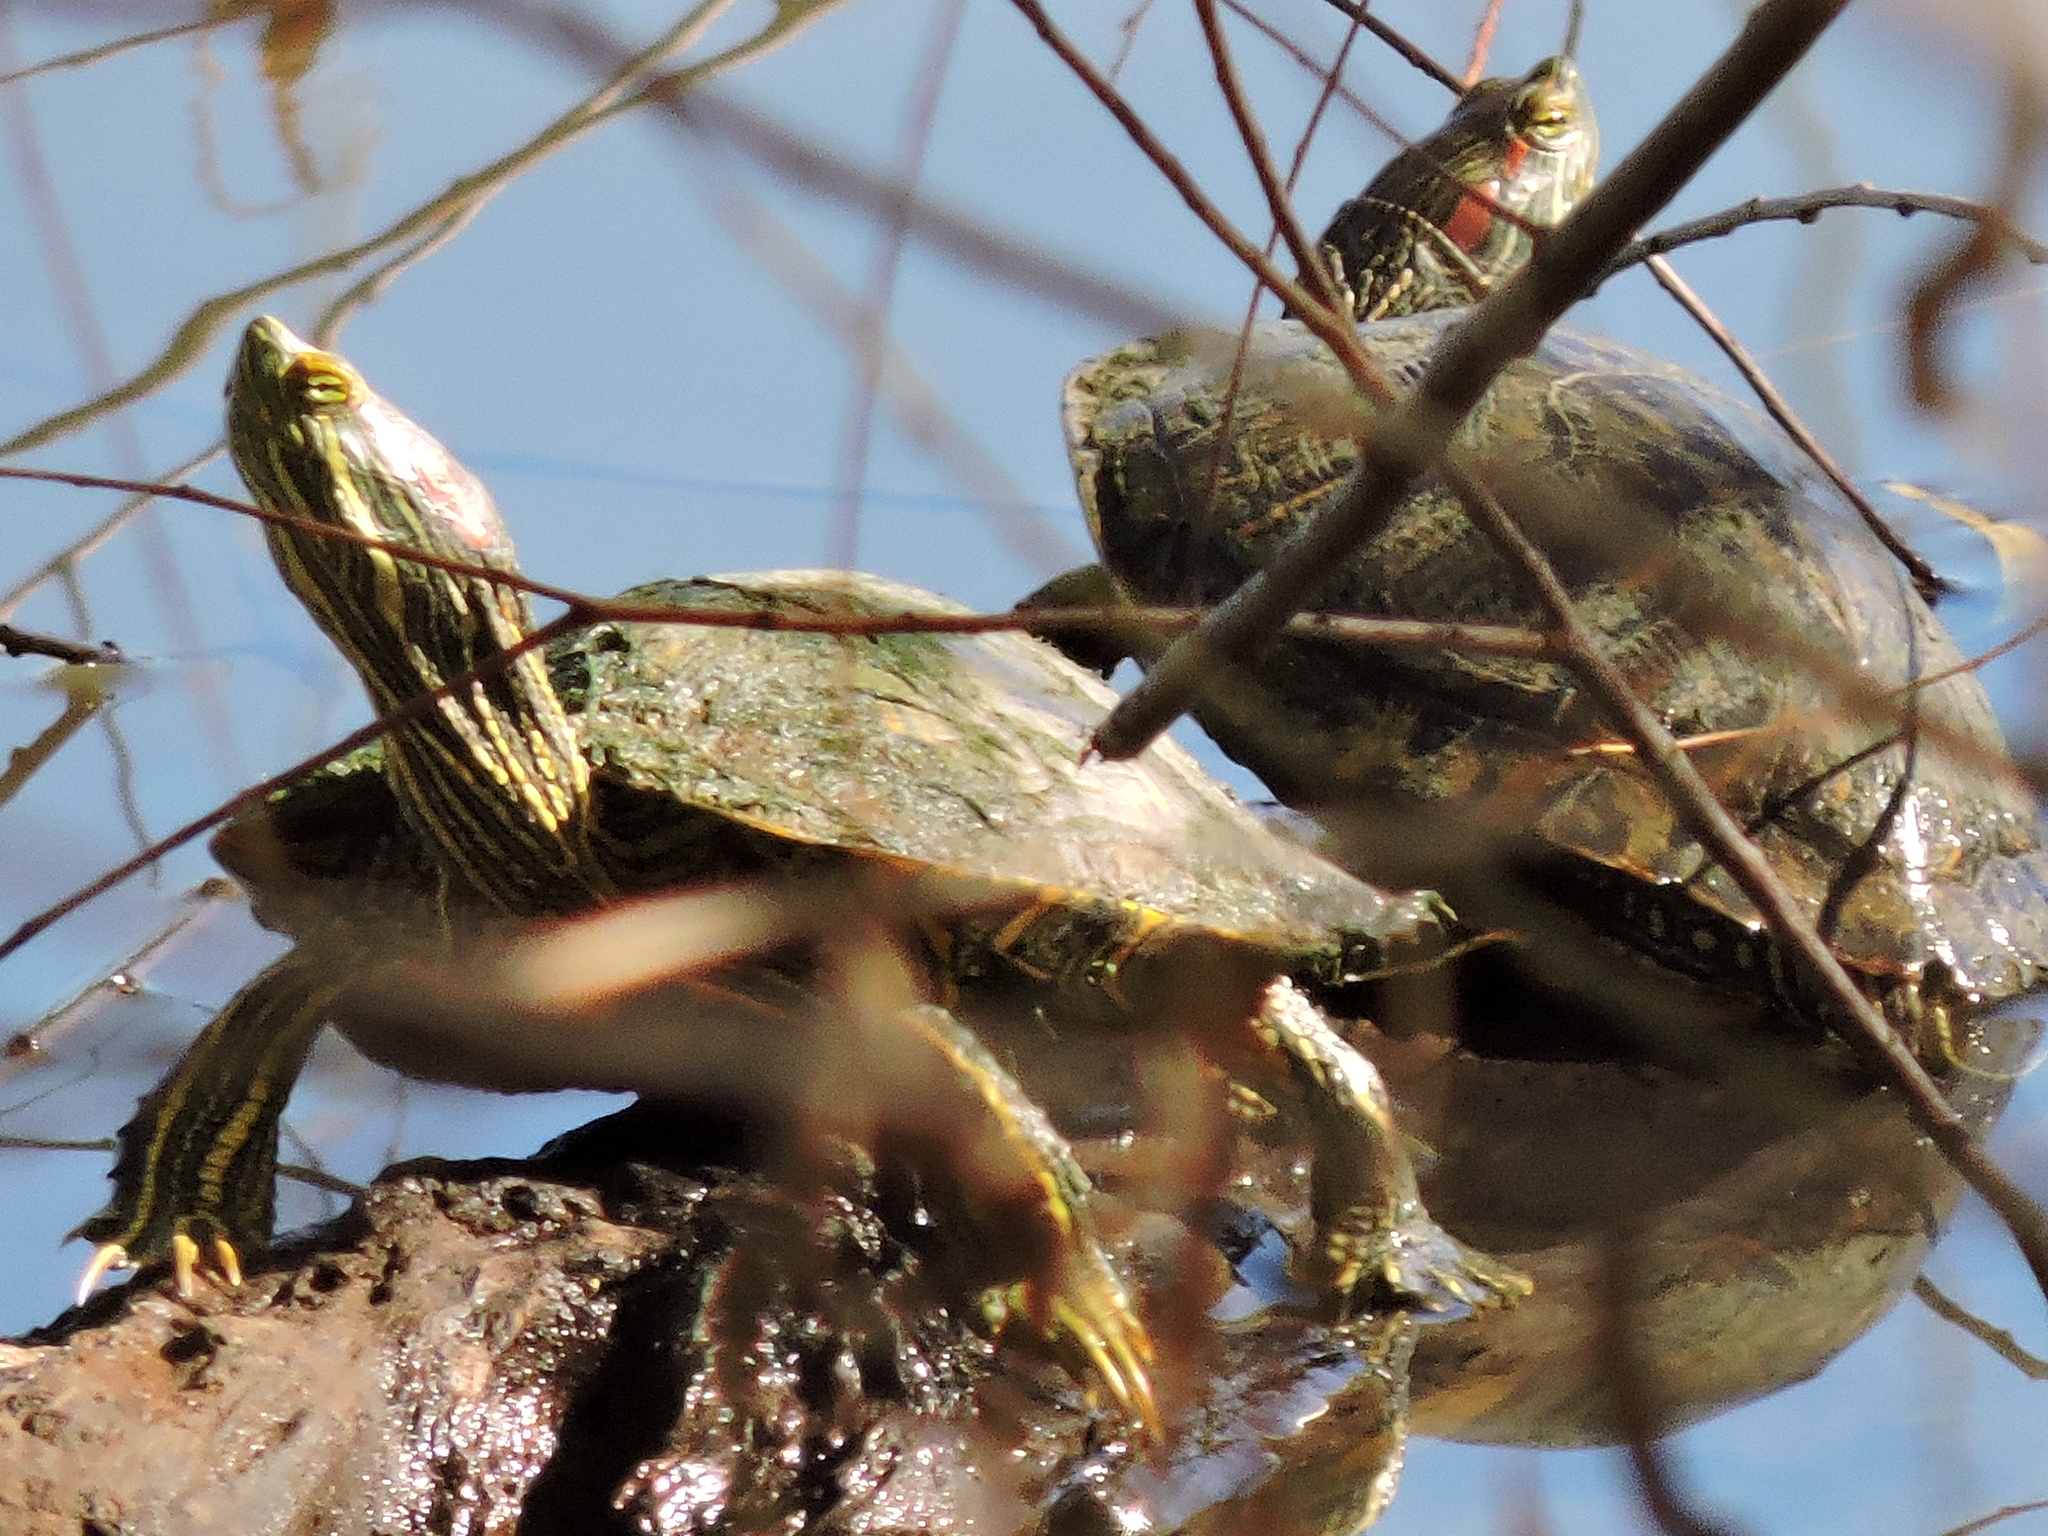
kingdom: Animalia
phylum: Chordata
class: Testudines
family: Emydidae
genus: Trachemys
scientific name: Trachemys scripta
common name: Slider
